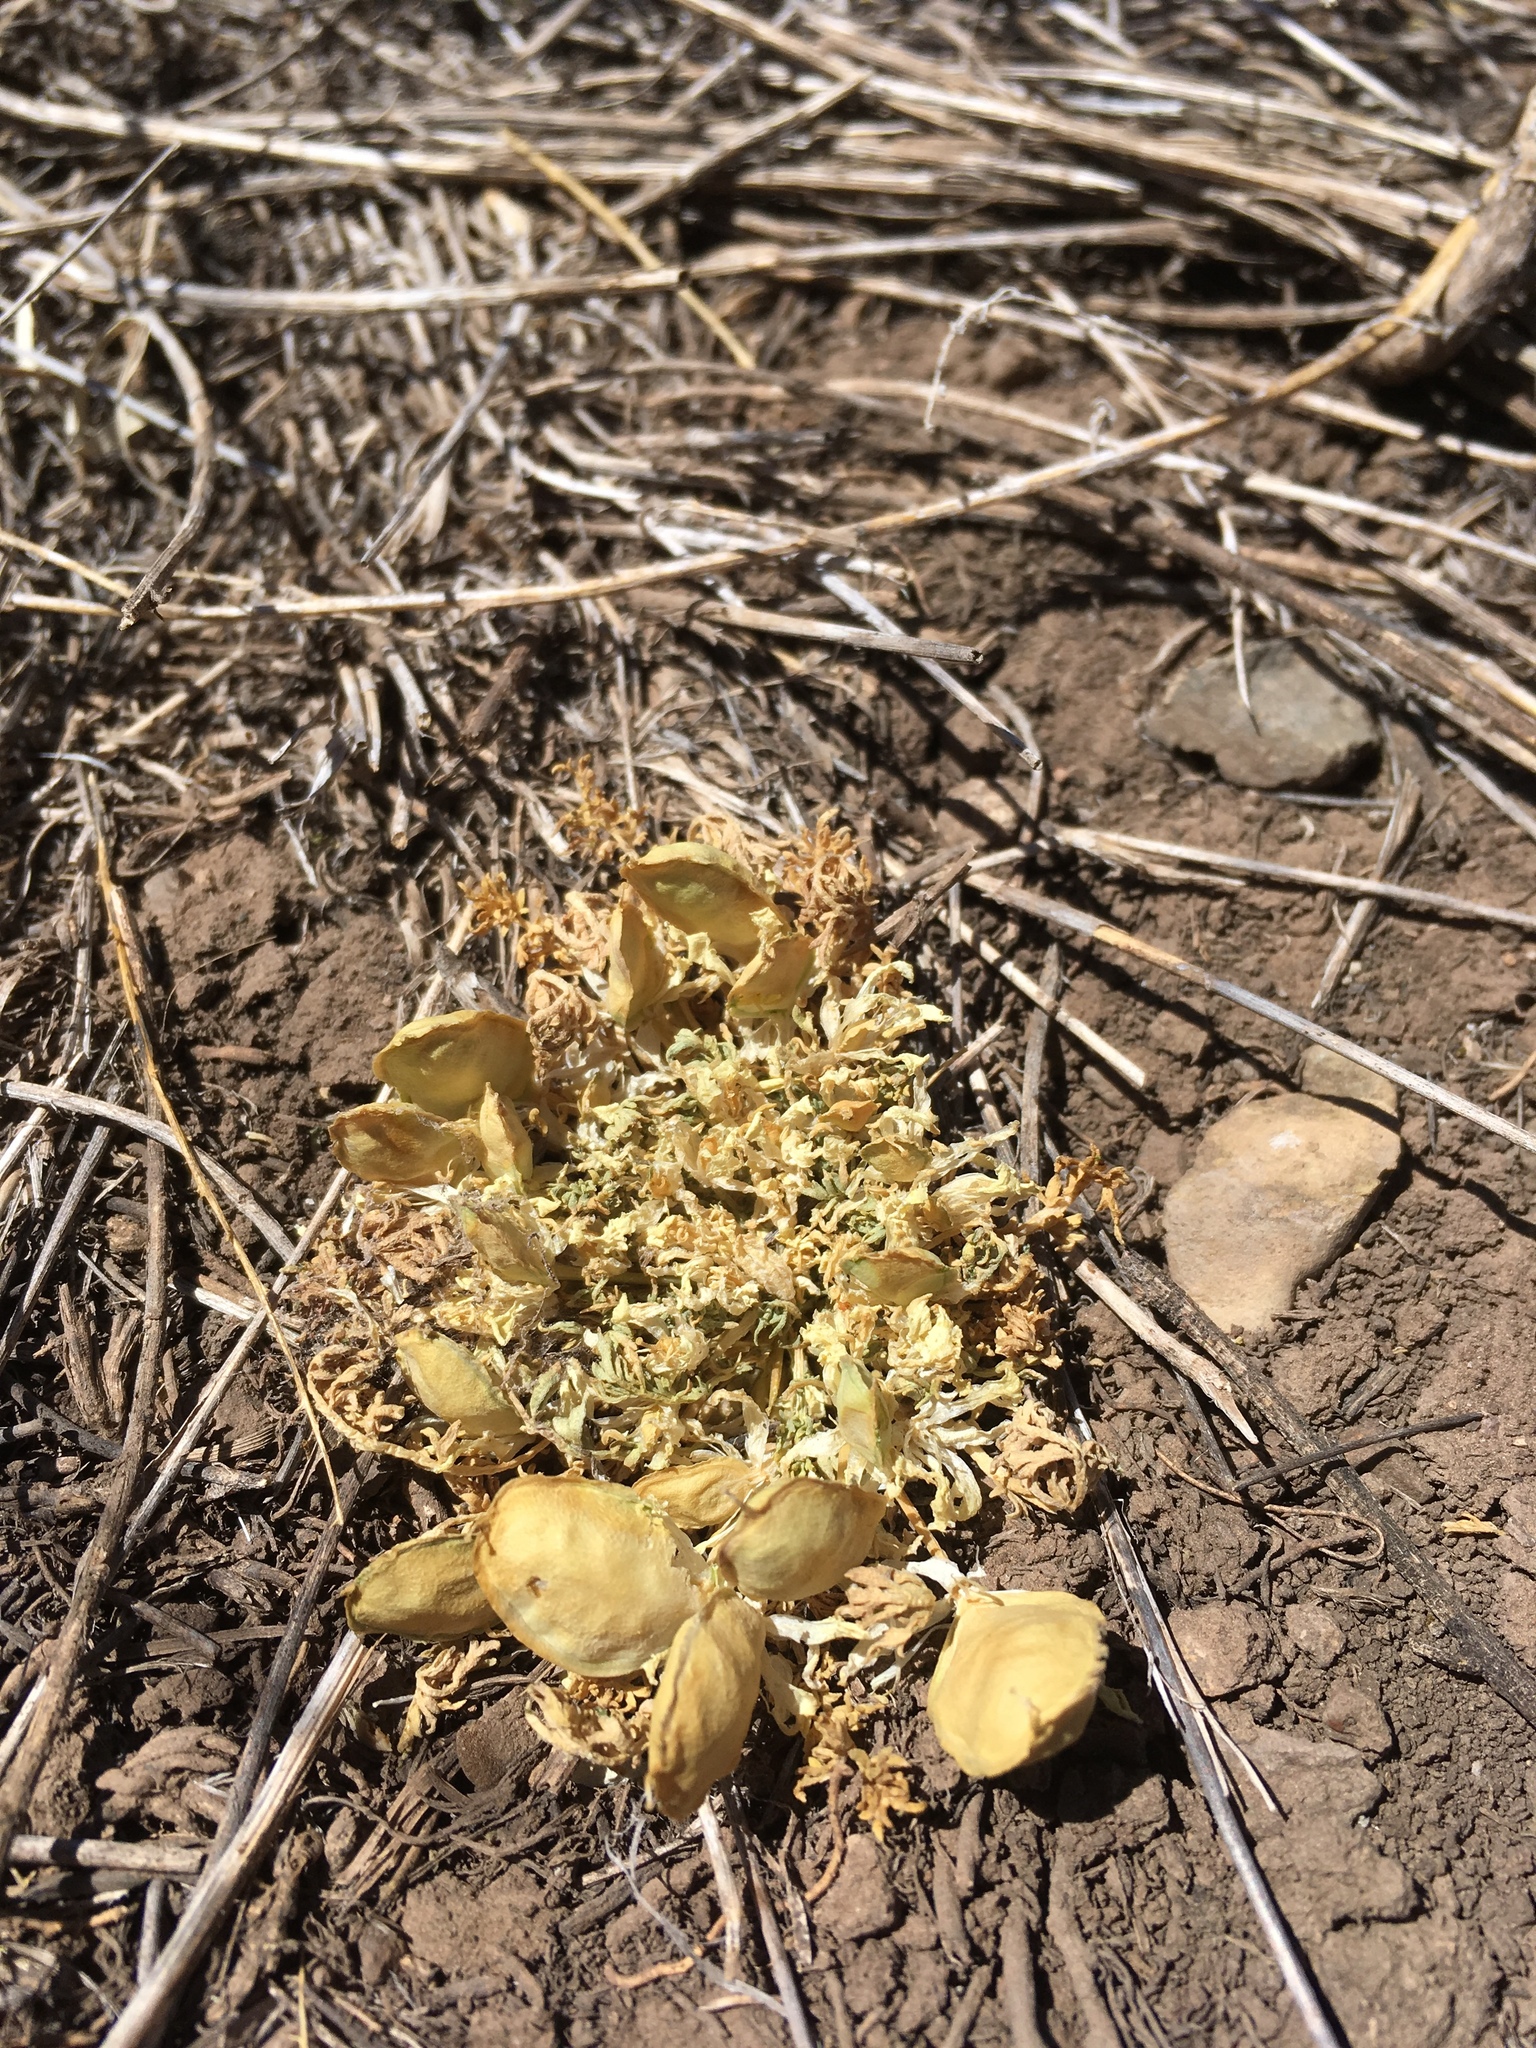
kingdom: Plantae
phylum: Tracheophyta
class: Magnoliopsida
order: Brassicales
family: Brassicaceae
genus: Selenia
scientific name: Selenia dissecta
